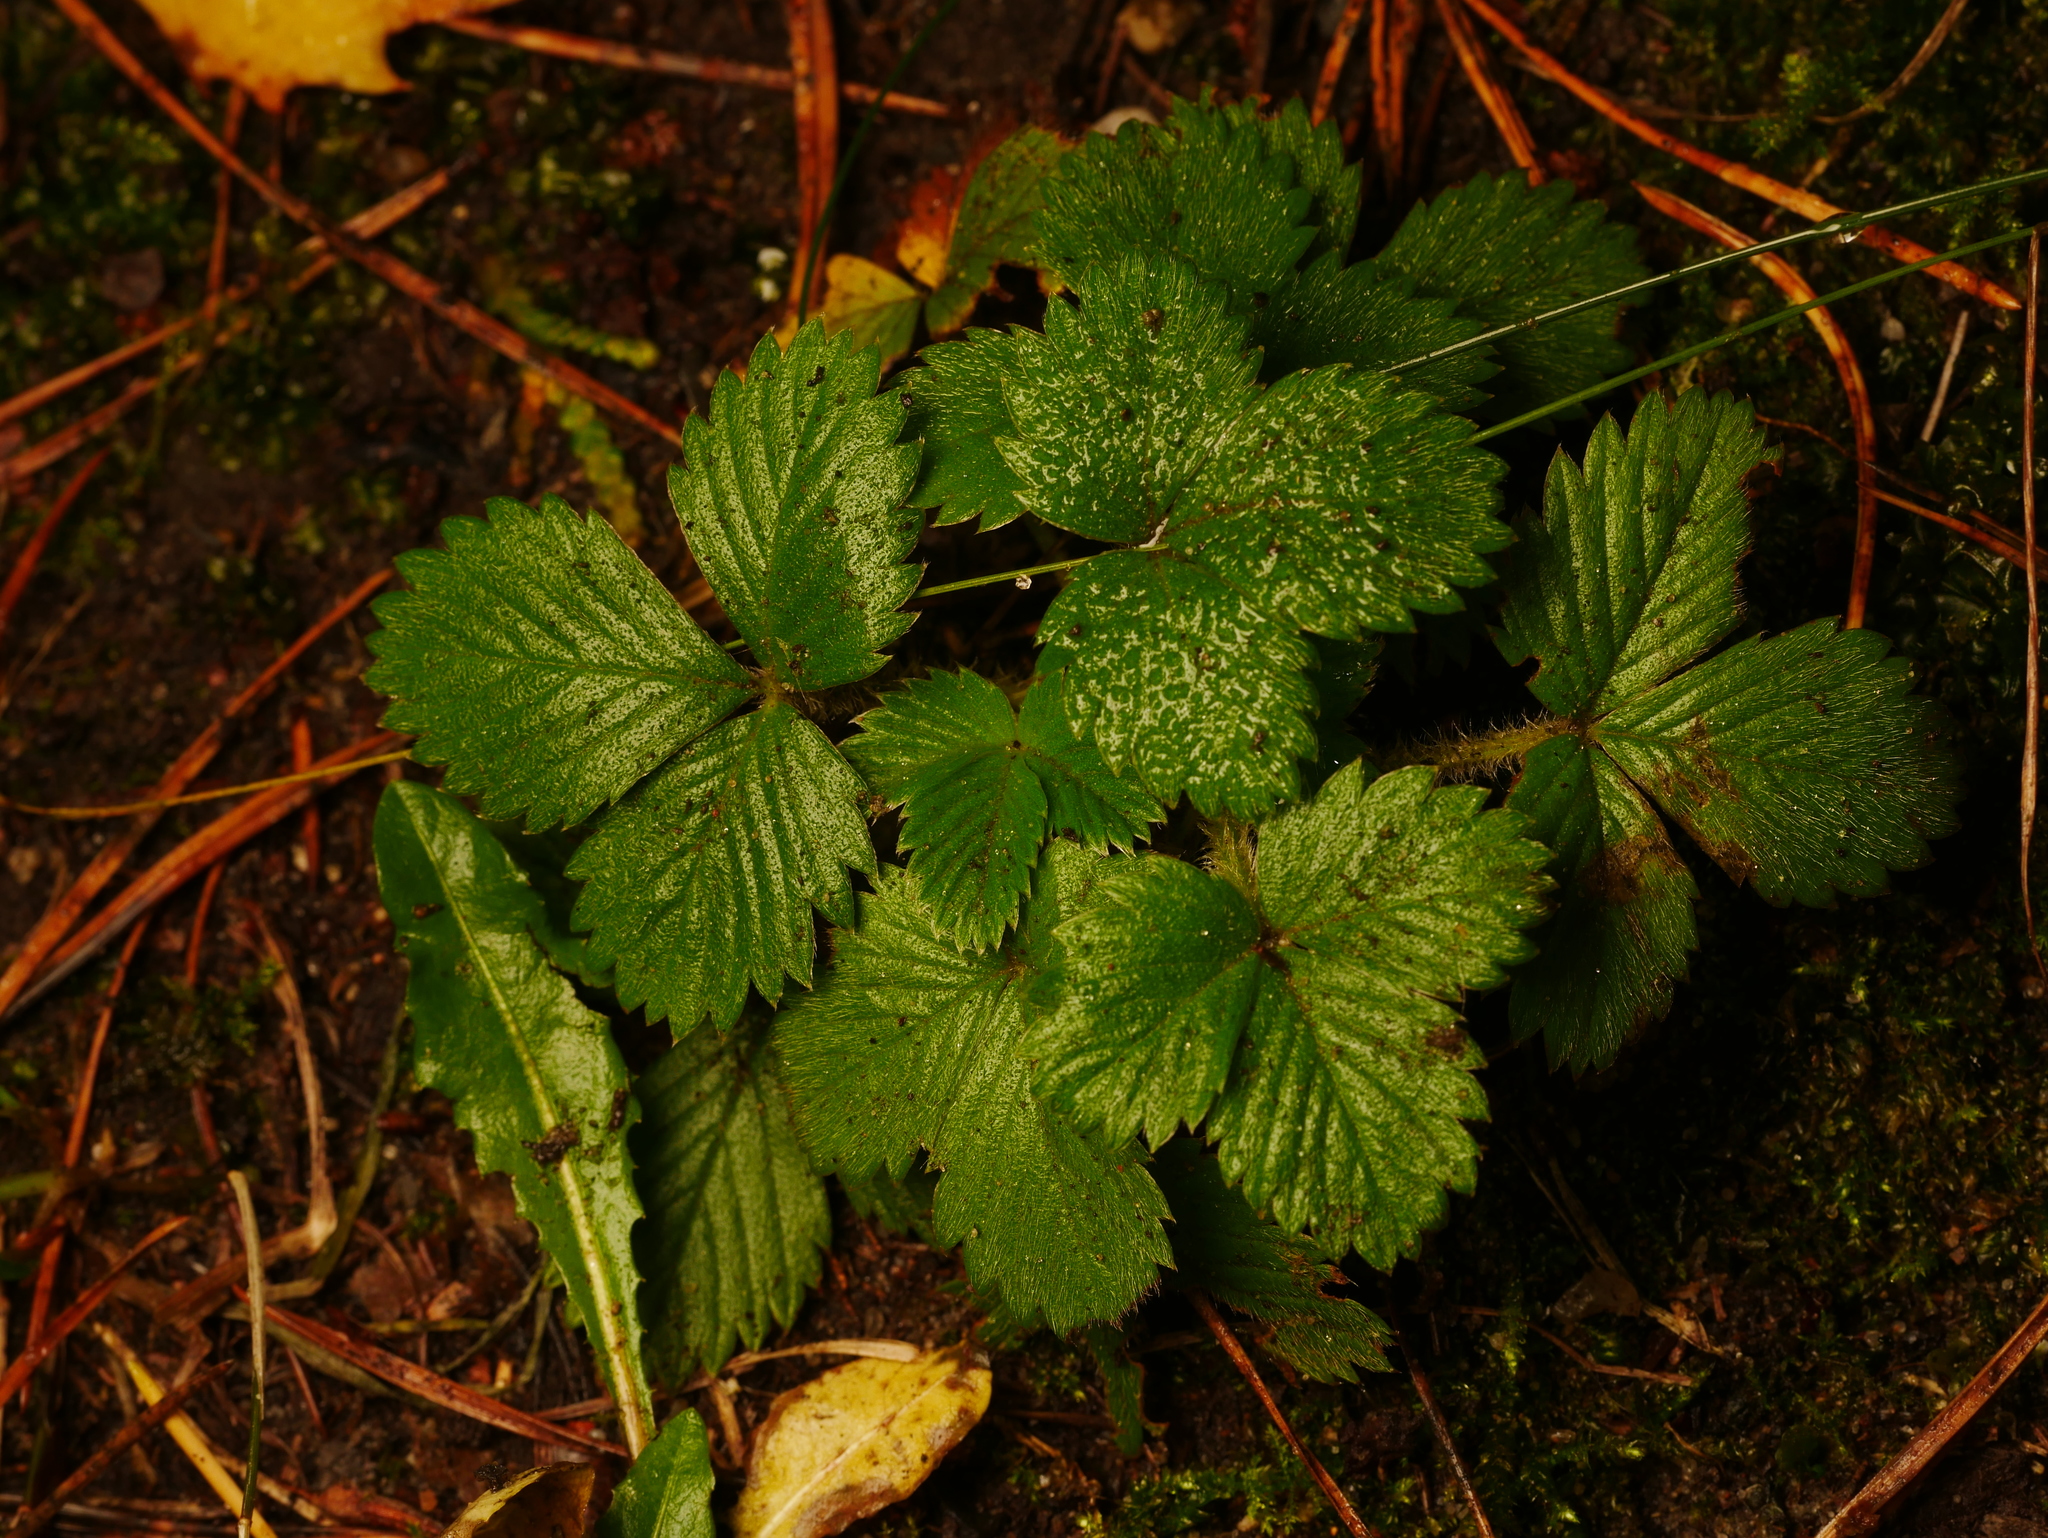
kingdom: Plantae
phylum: Tracheophyta
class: Magnoliopsida
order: Rosales
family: Rosaceae
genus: Fragaria
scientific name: Fragaria vesca
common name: Wild strawberry
